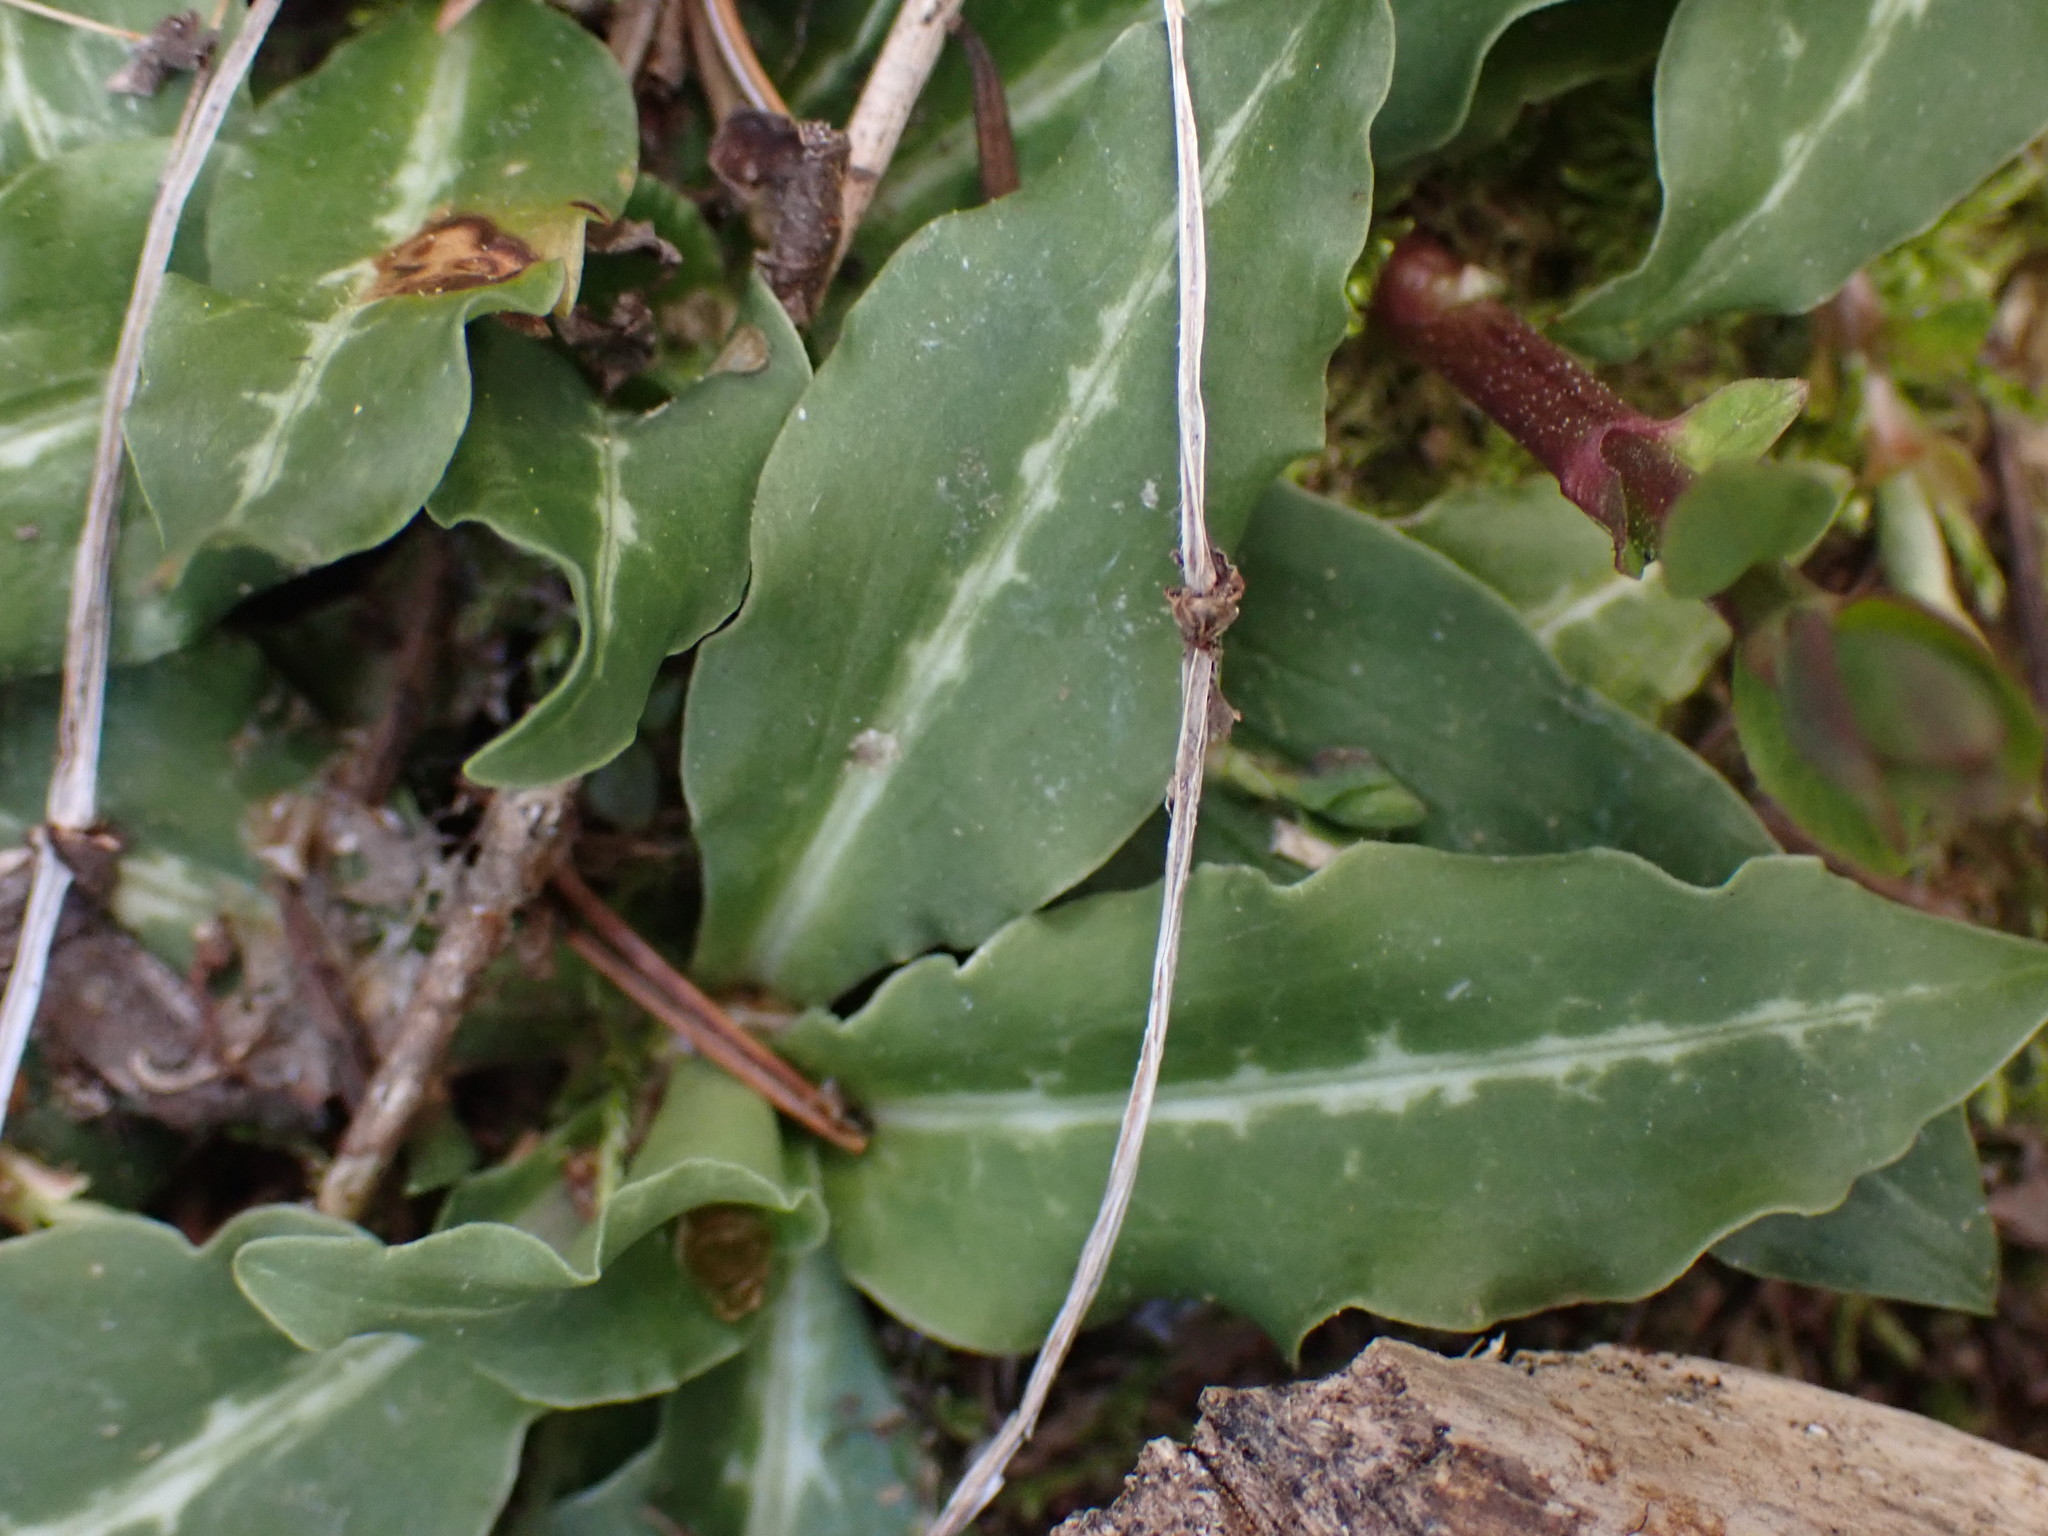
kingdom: Plantae
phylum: Tracheophyta
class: Liliopsida
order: Asparagales
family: Orchidaceae
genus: Goodyera
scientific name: Goodyera oblongifolia
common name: Giant rattlesnake-plantain
